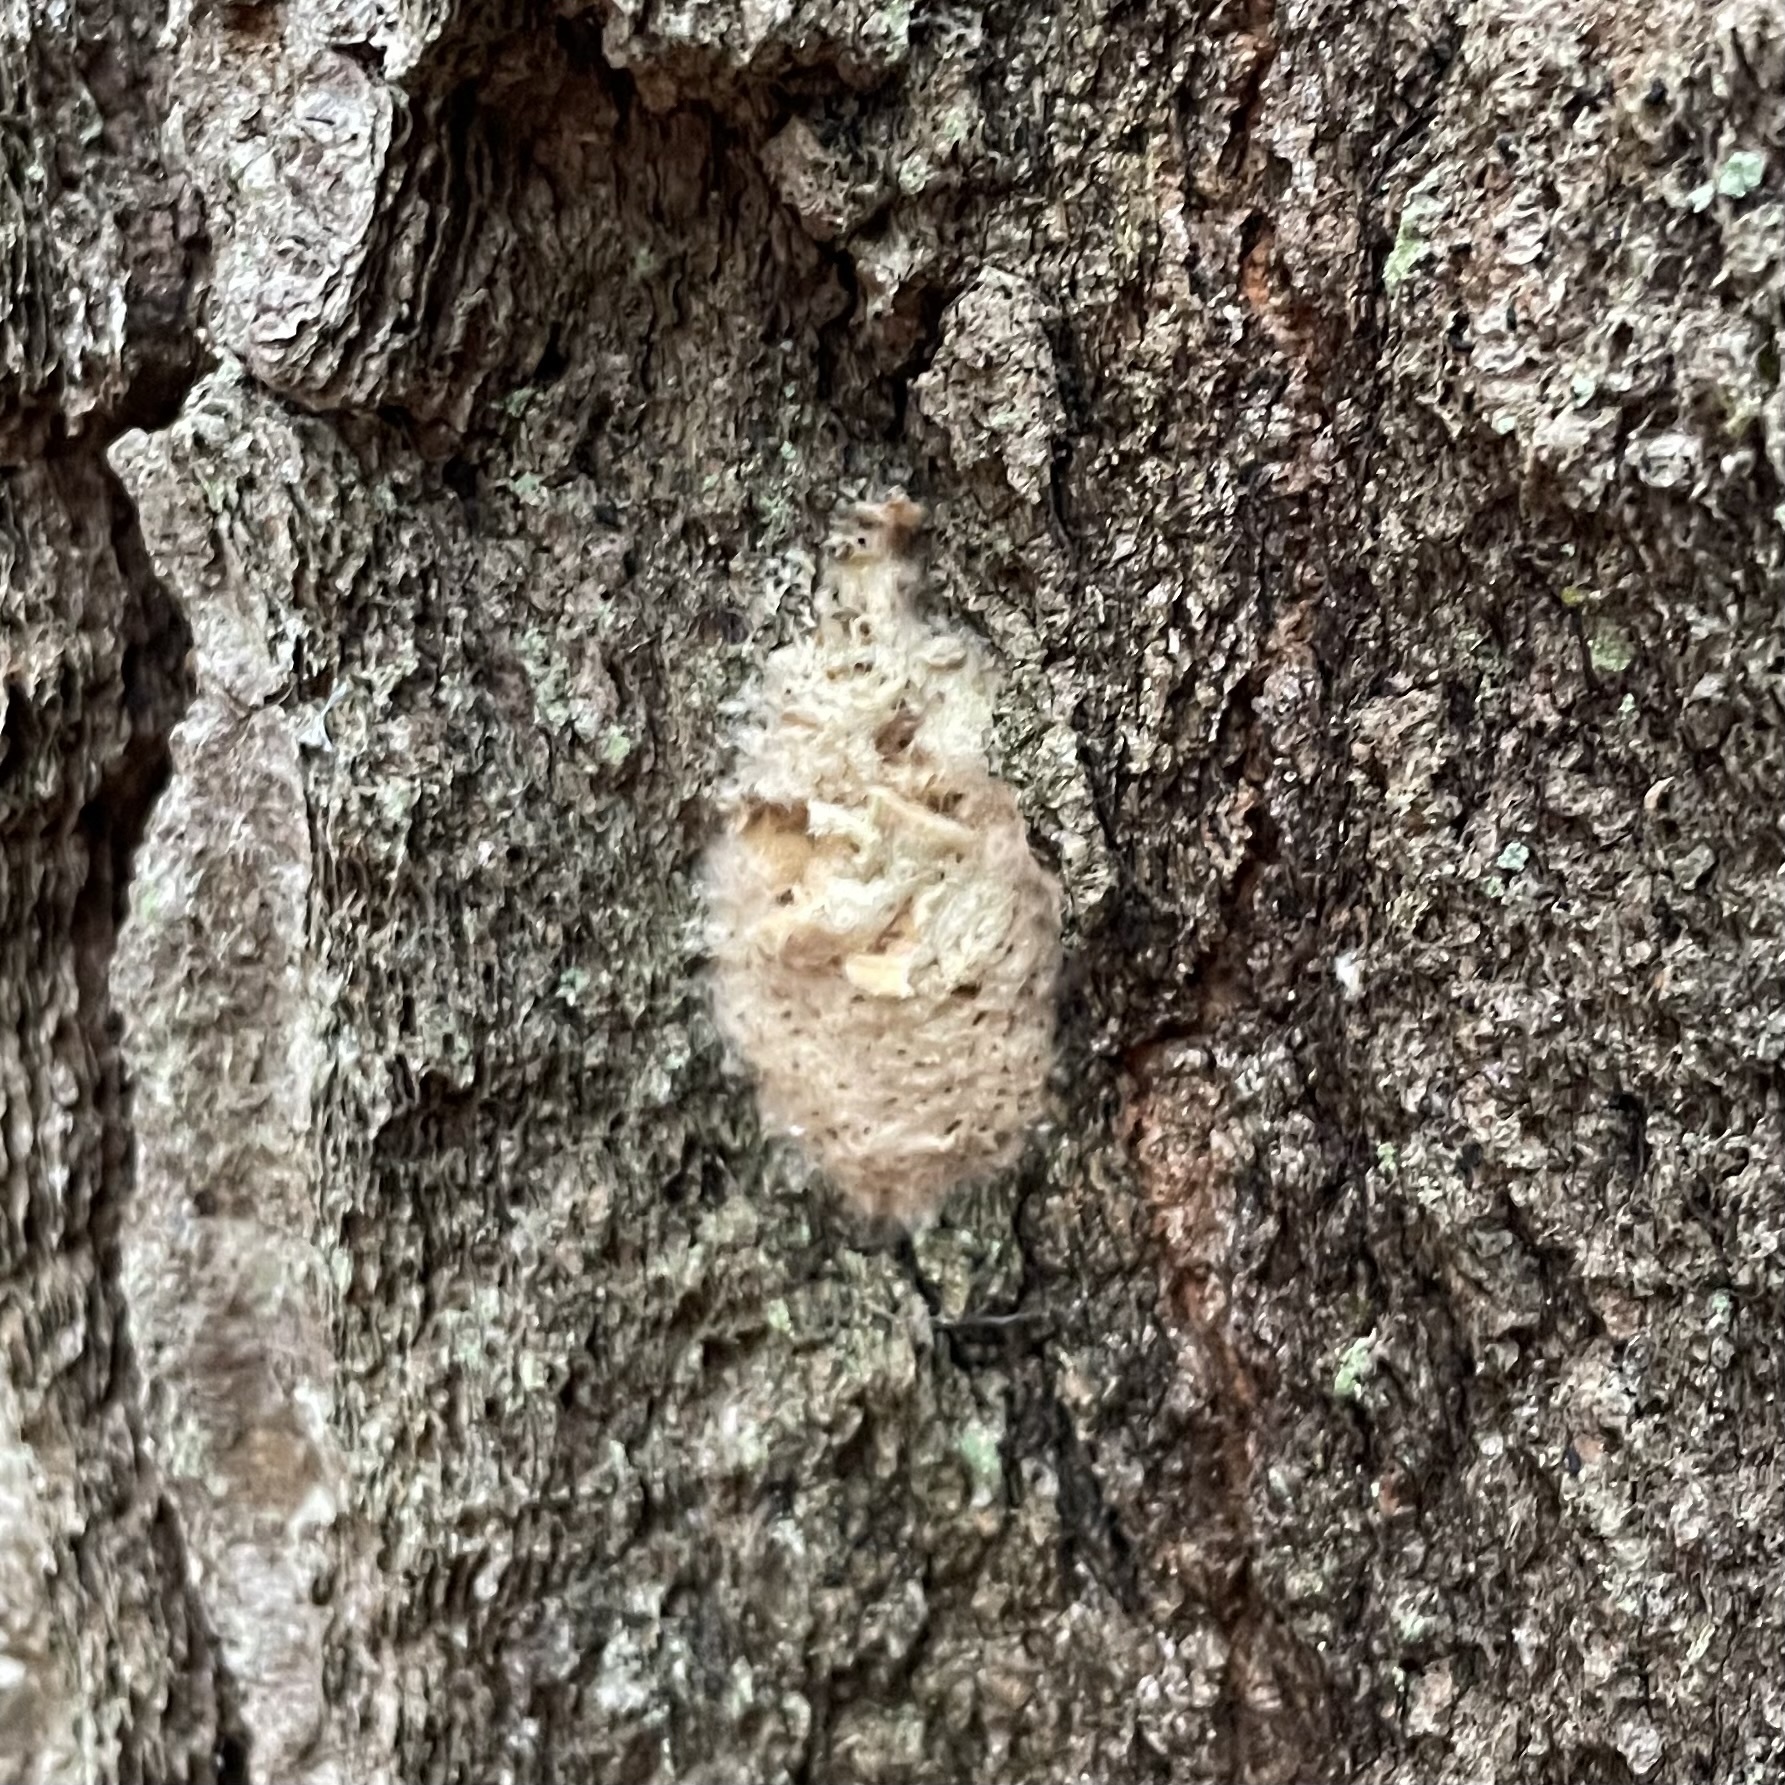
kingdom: Animalia
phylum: Arthropoda
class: Insecta
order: Lepidoptera
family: Erebidae
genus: Lymantria
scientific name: Lymantria dispar
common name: Gypsy moth
